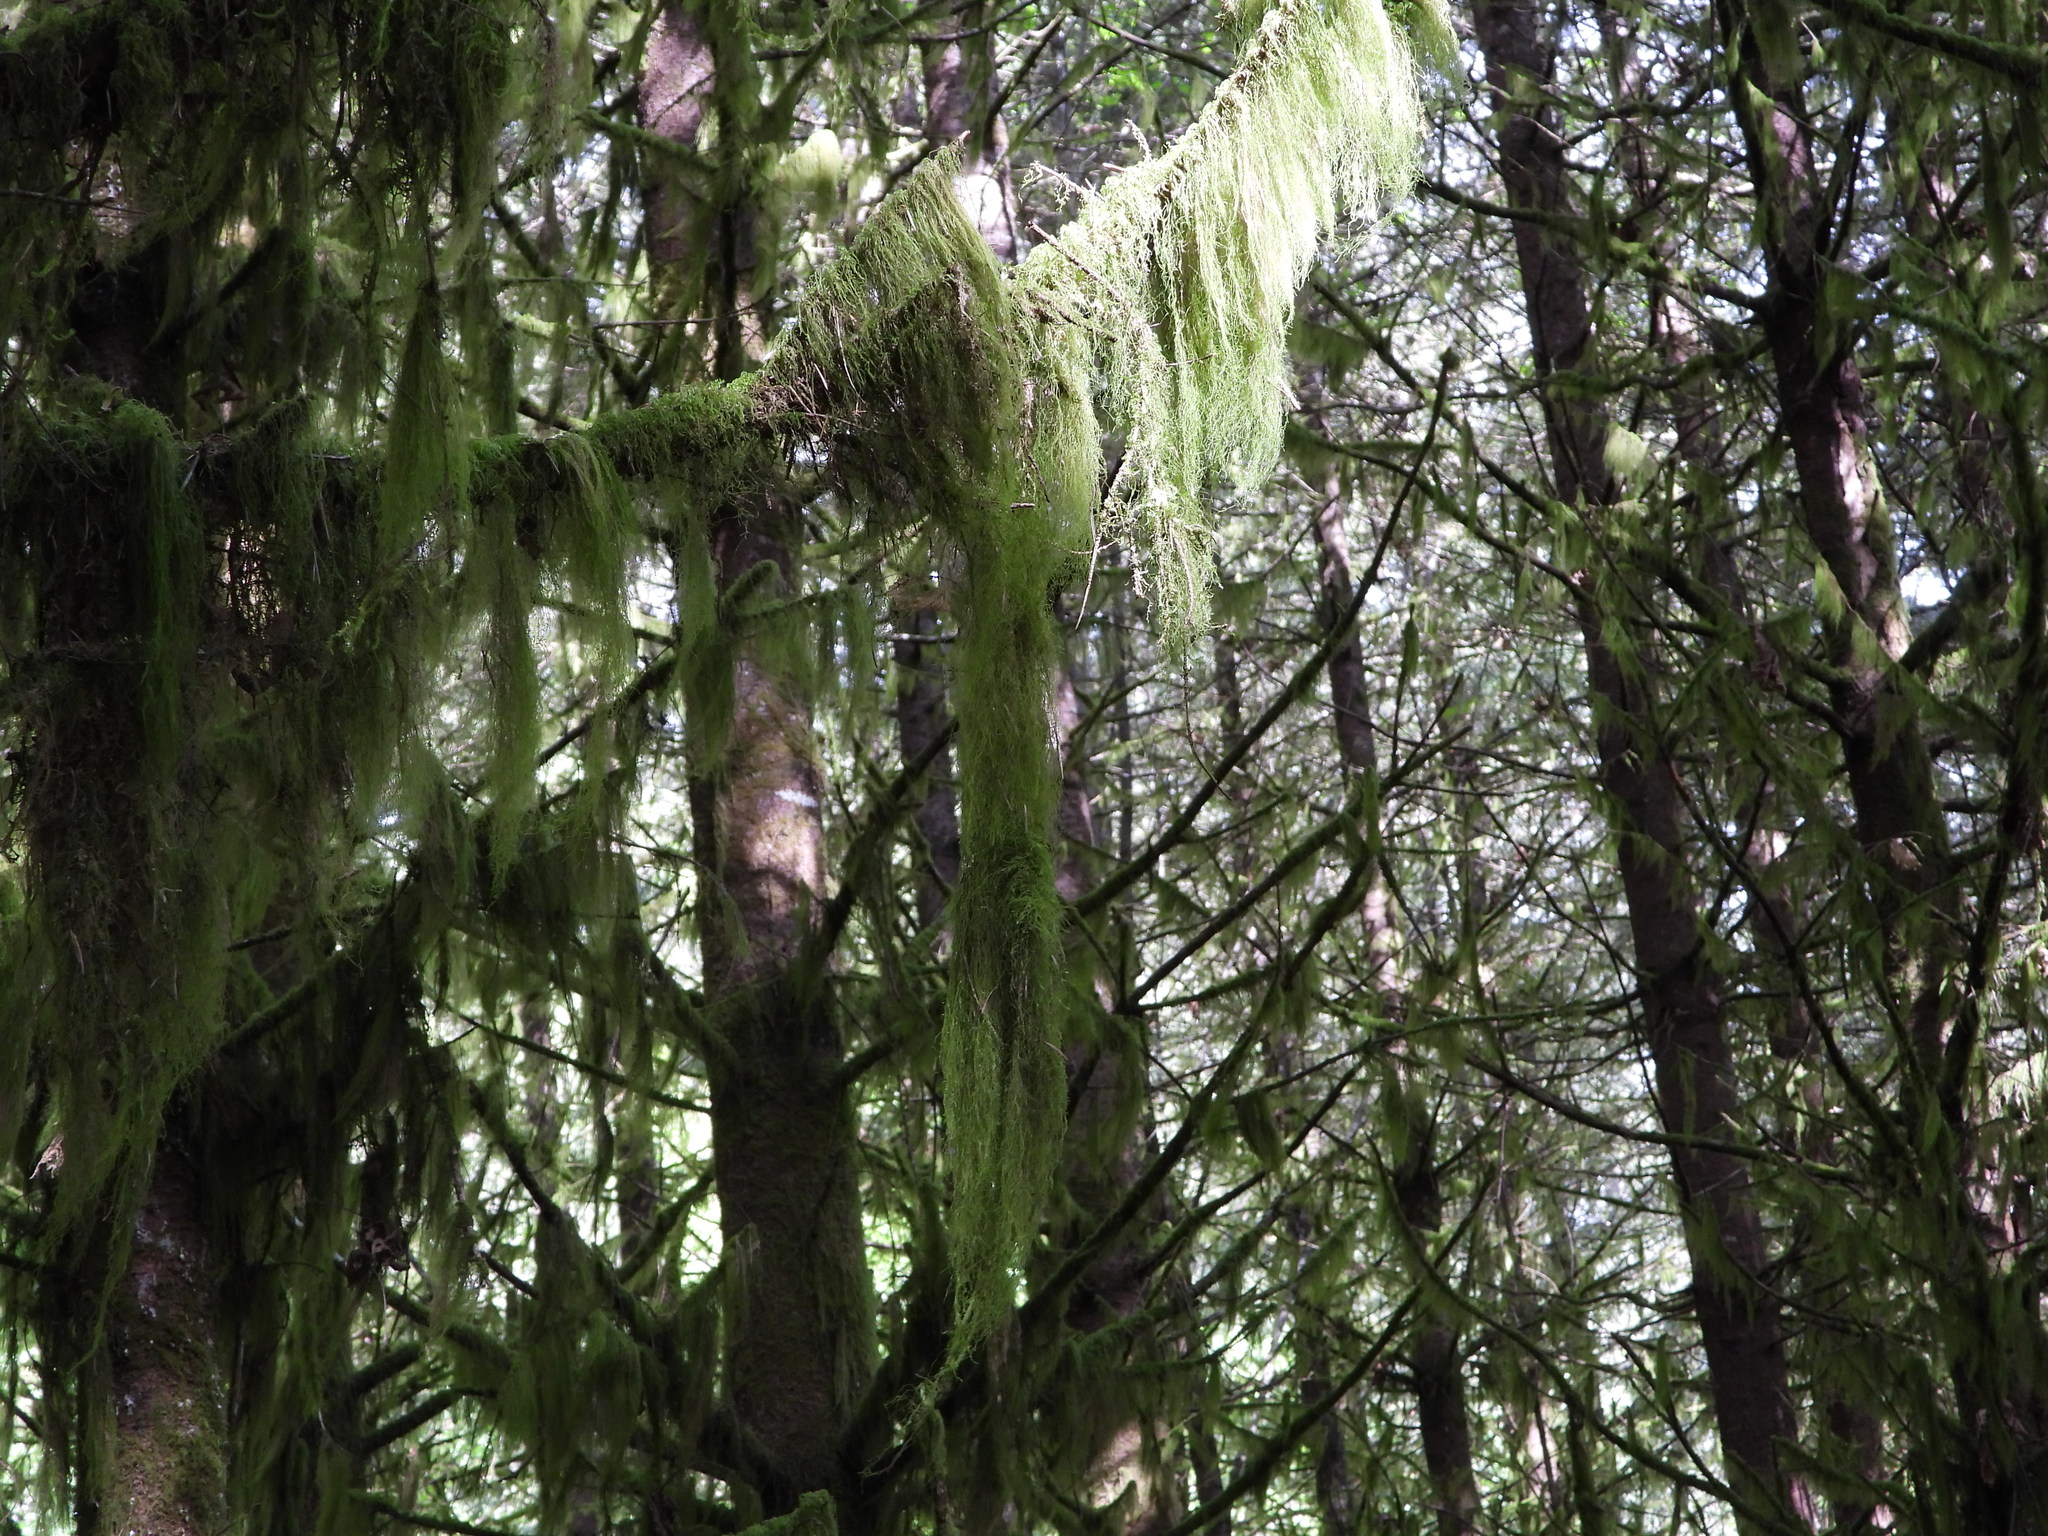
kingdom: Plantae
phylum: Bryophyta
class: Bryopsida
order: Hypnales
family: Lembophyllaceae
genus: Pseudisothecium
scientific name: Pseudisothecium stoloniferum
